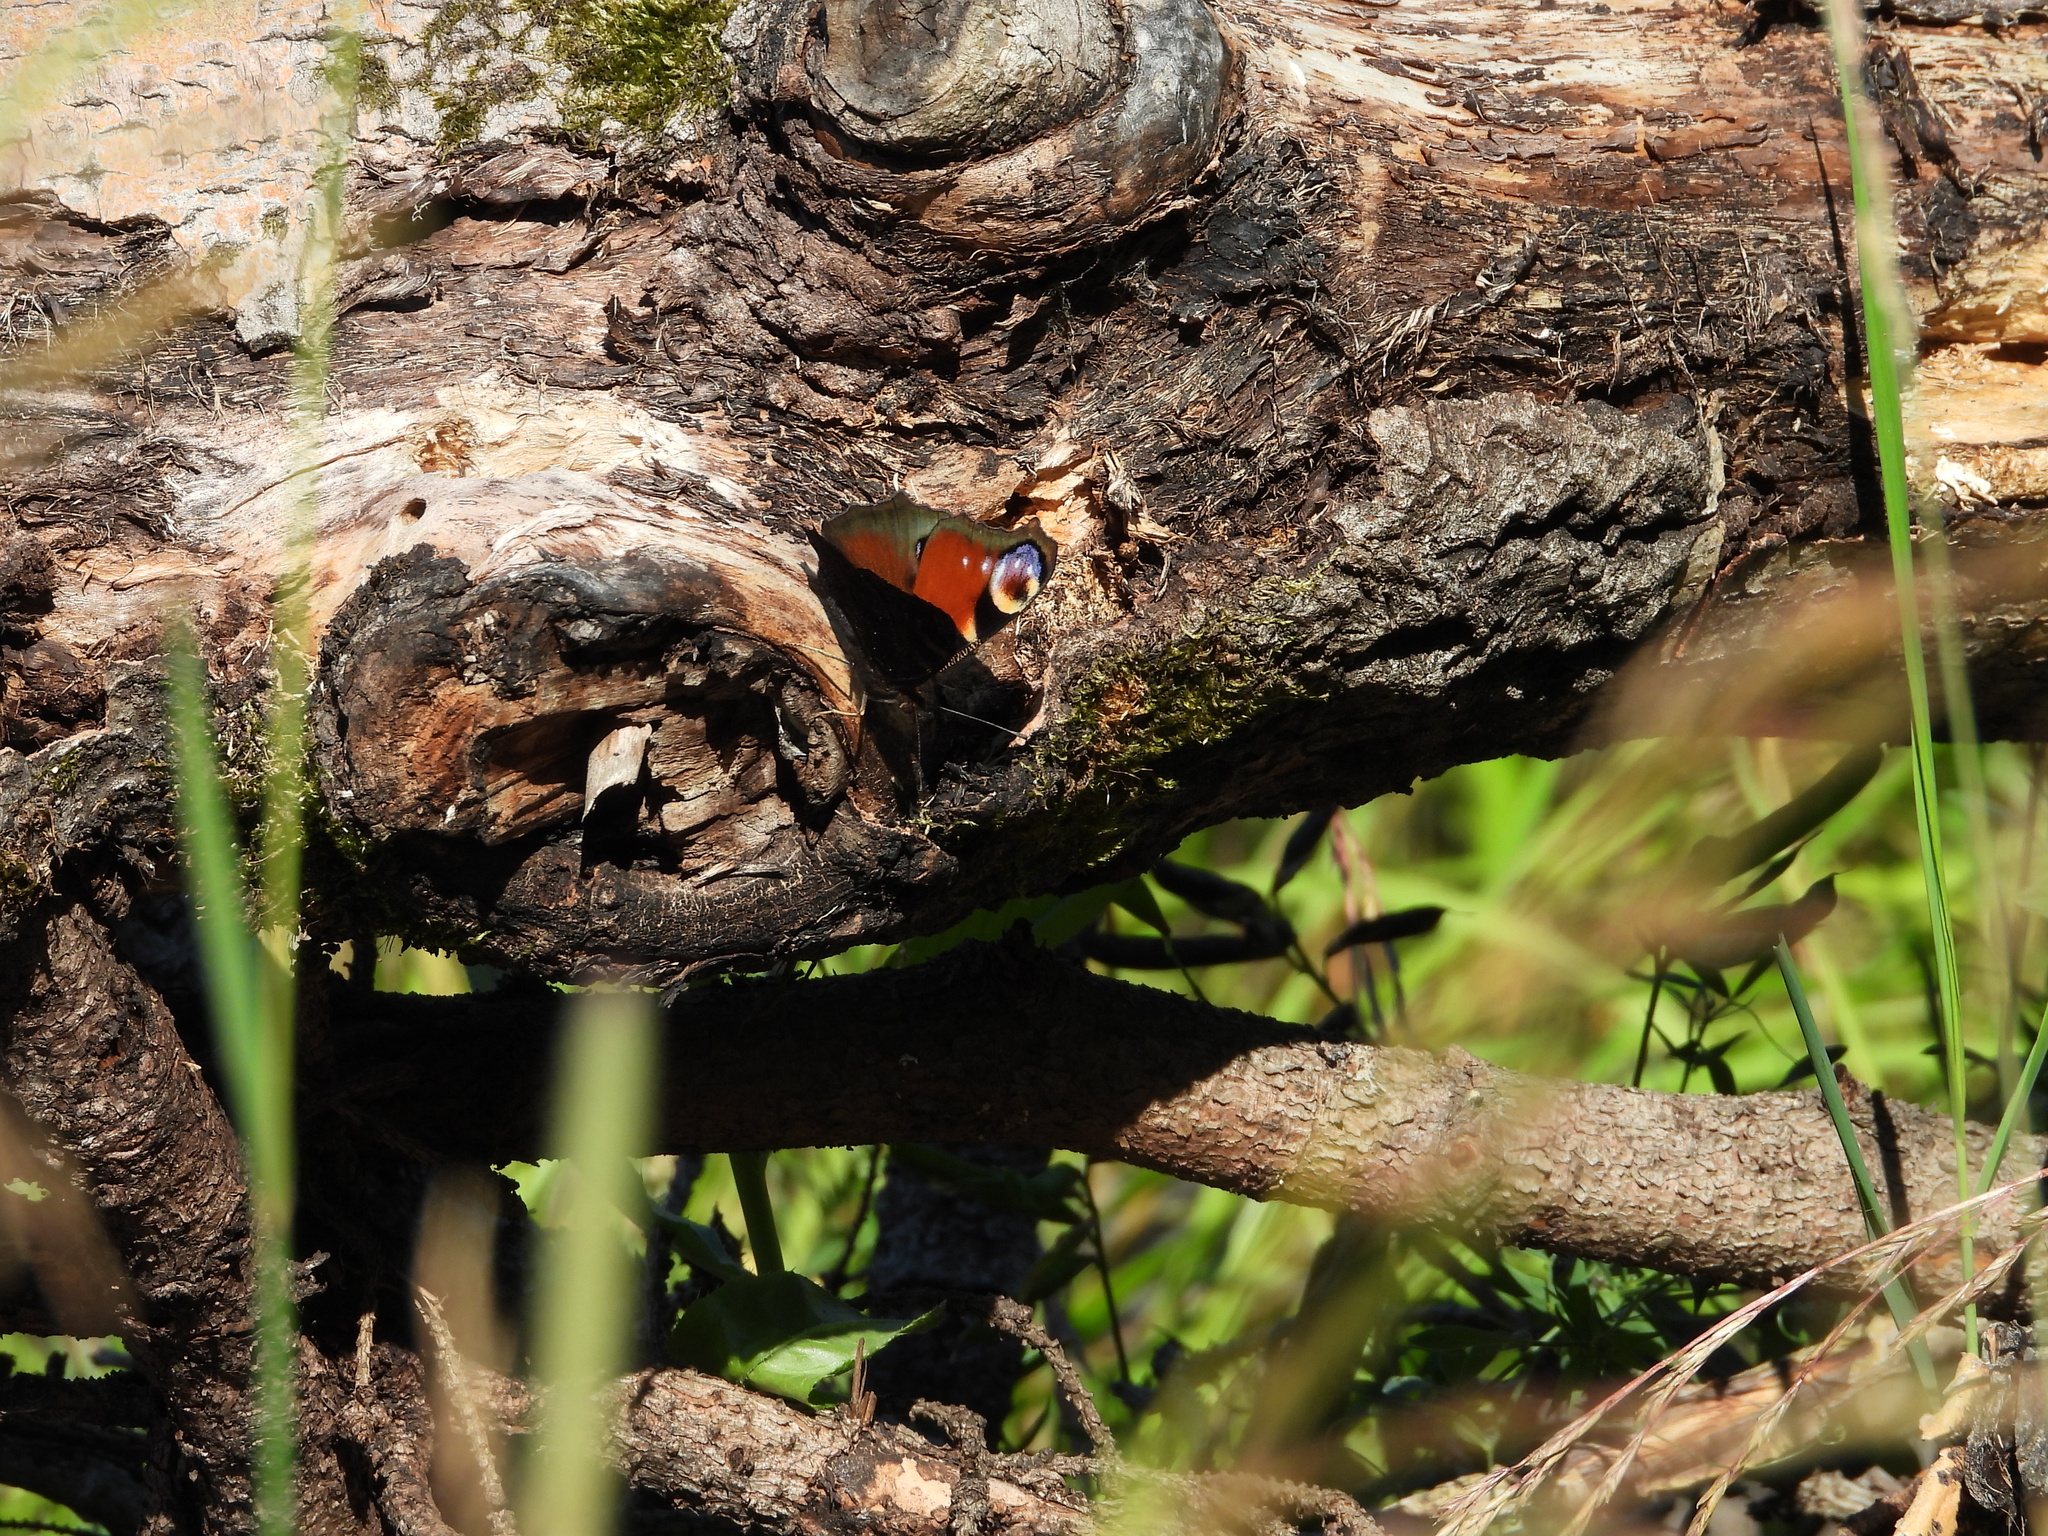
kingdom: Animalia
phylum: Arthropoda
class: Insecta
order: Lepidoptera
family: Nymphalidae
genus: Aglais
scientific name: Aglais io
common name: Peacock
